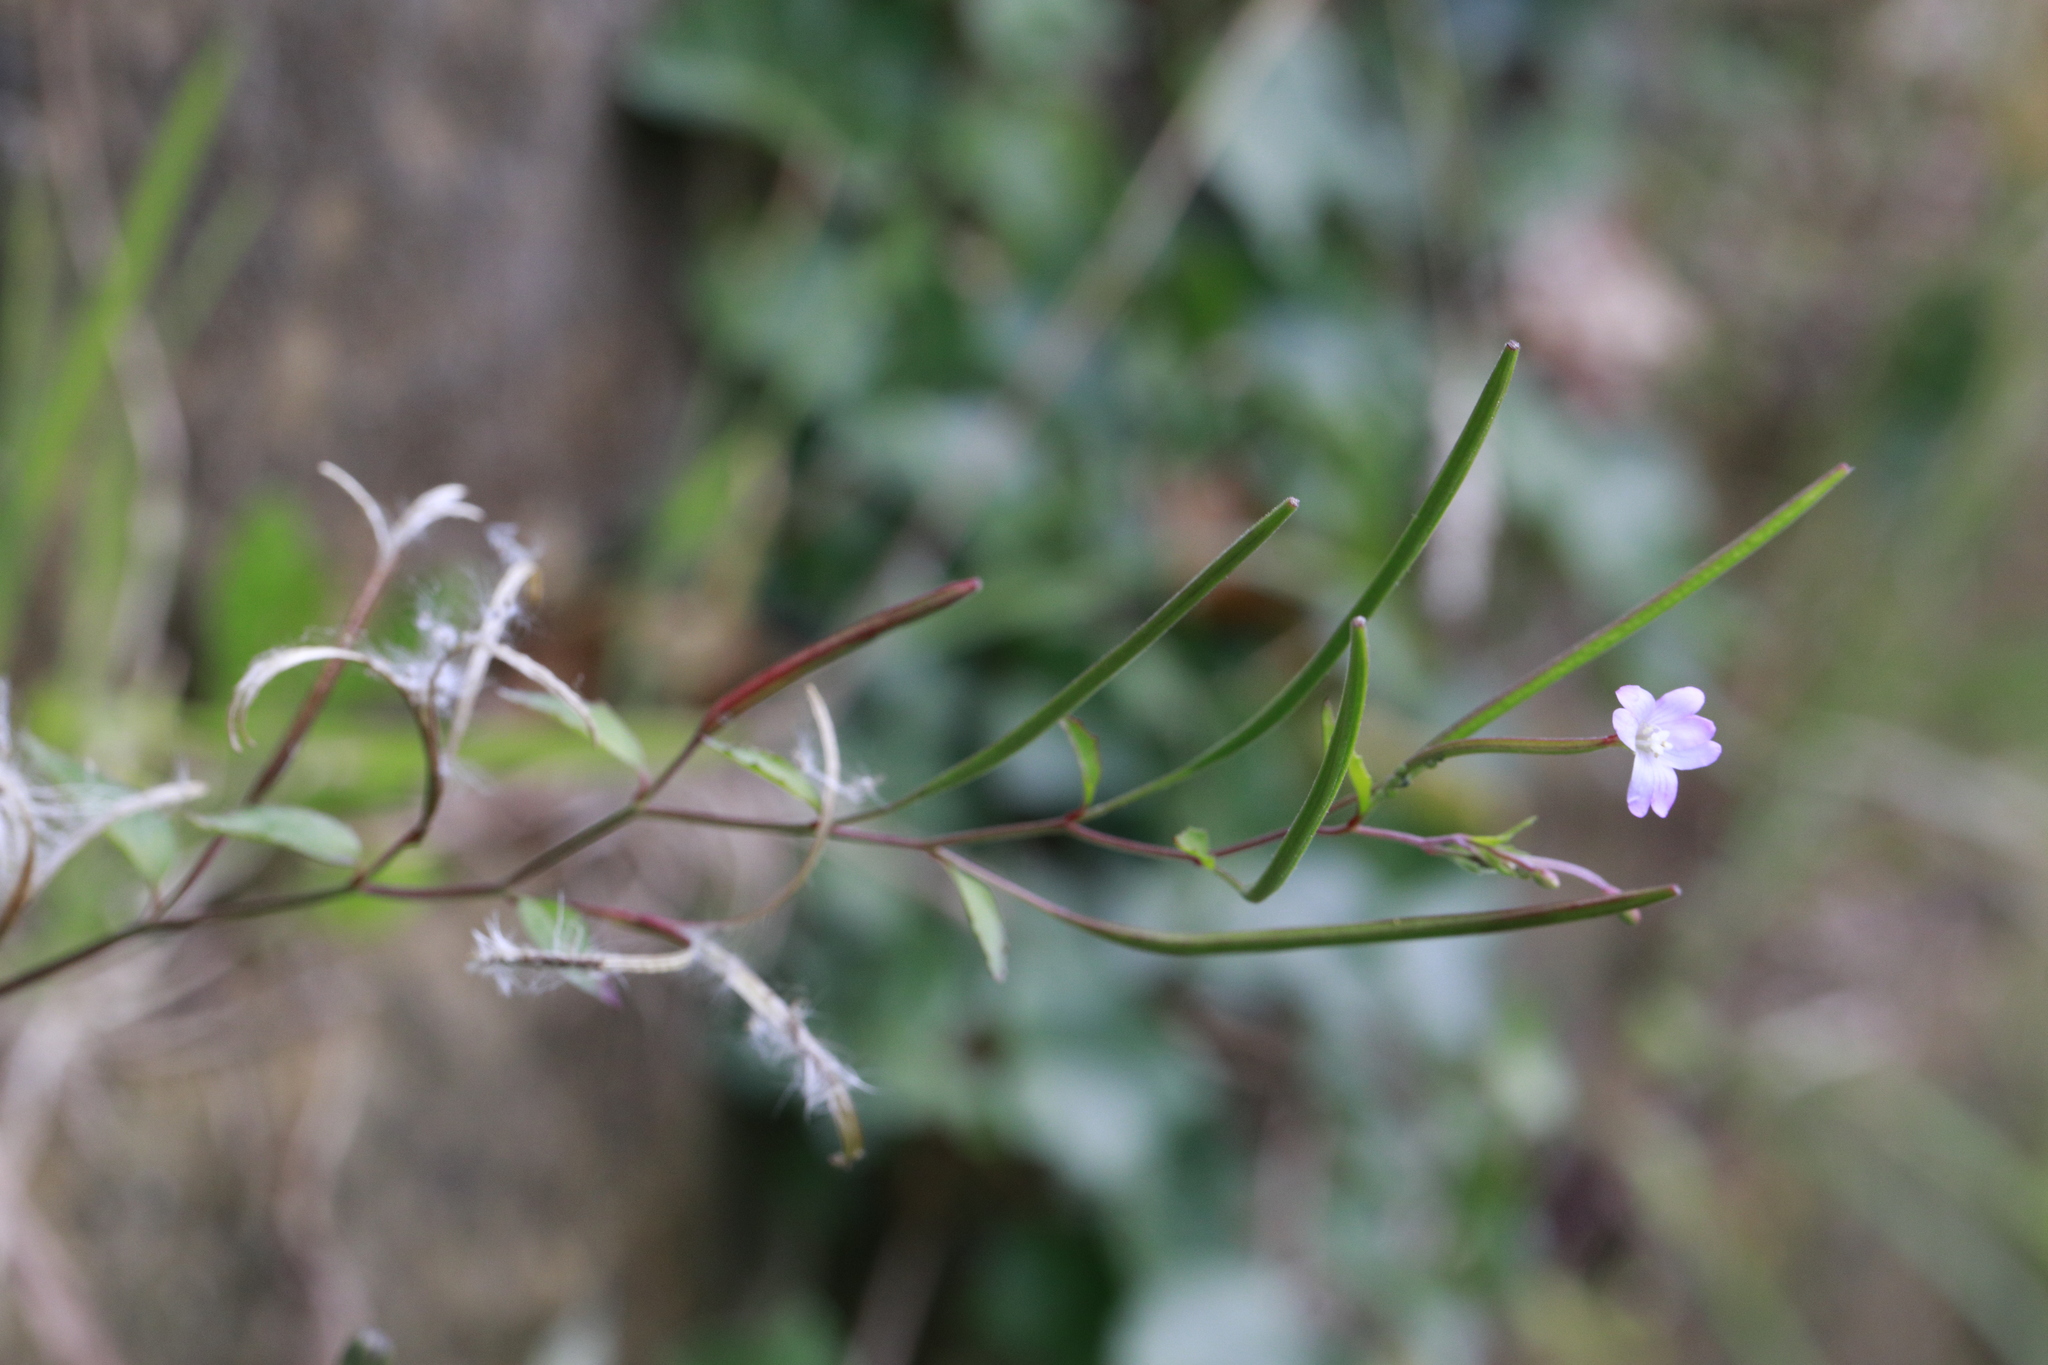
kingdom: Plantae
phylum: Tracheophyta
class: Magnoliopsida
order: Myrtales
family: Onagraceae
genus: Epilobium
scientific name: Epilobium montanum
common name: Broad-leaved willowherb
